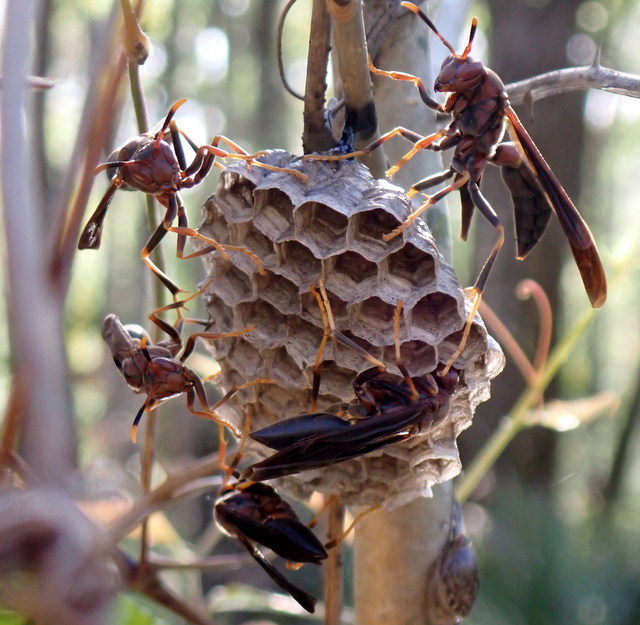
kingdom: Animalia
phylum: Arthropoda
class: Insecta
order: Hymenoptera
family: Eumenidae
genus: Polistes
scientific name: Polistes annularis
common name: Ringed paper wasp
